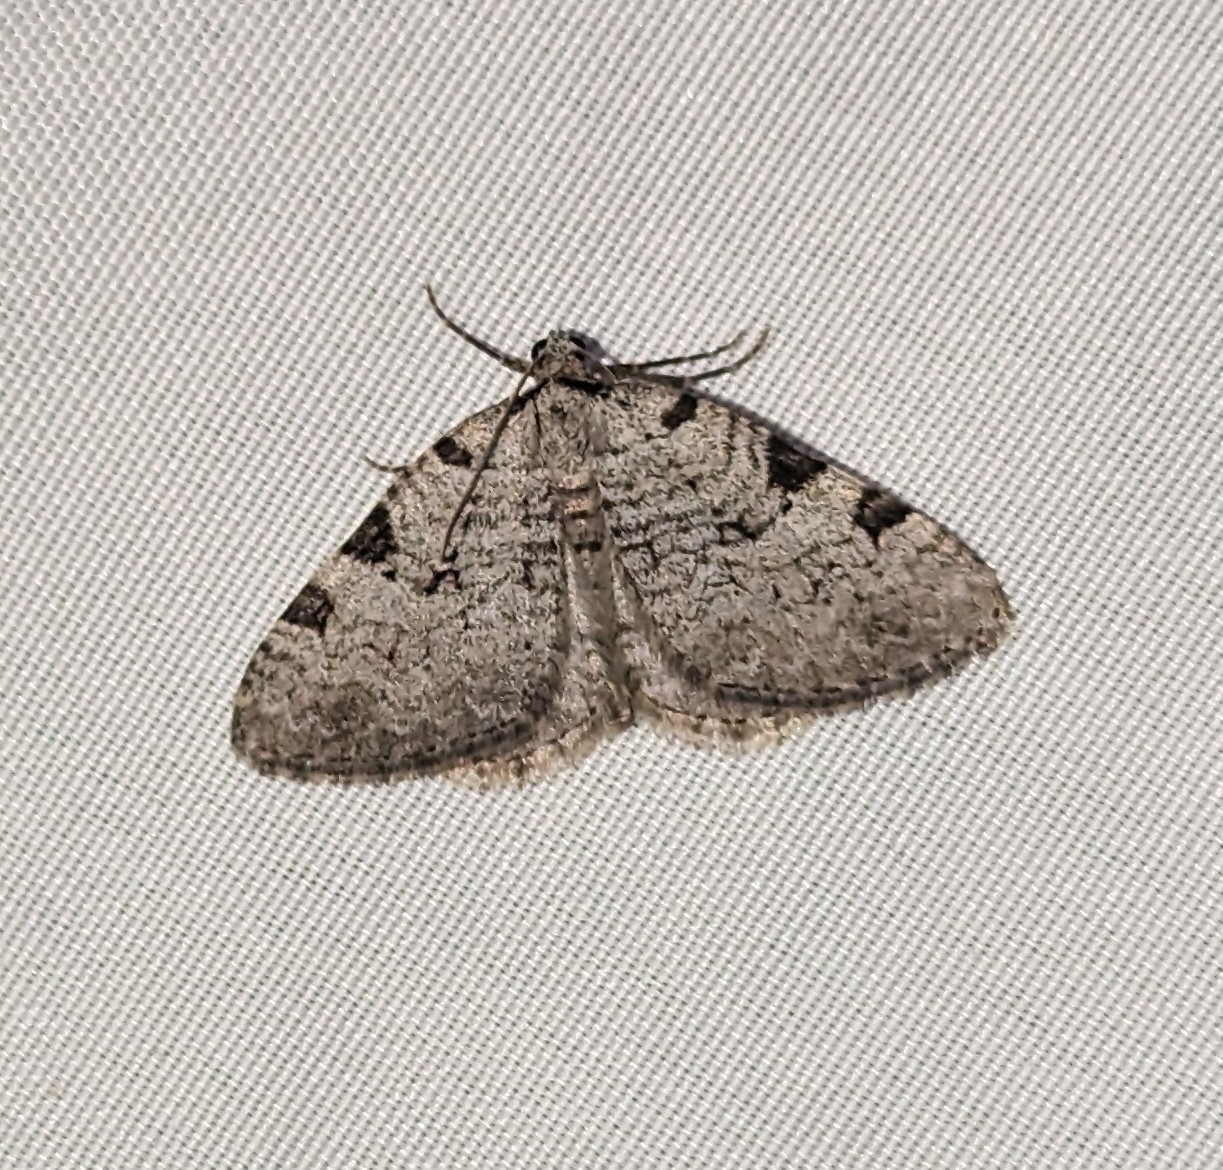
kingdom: Animalia
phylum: Arthropoda
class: Insecta
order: Lepidoptera
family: Geometridae
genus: Perizoma
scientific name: Perizoma costiguttata
